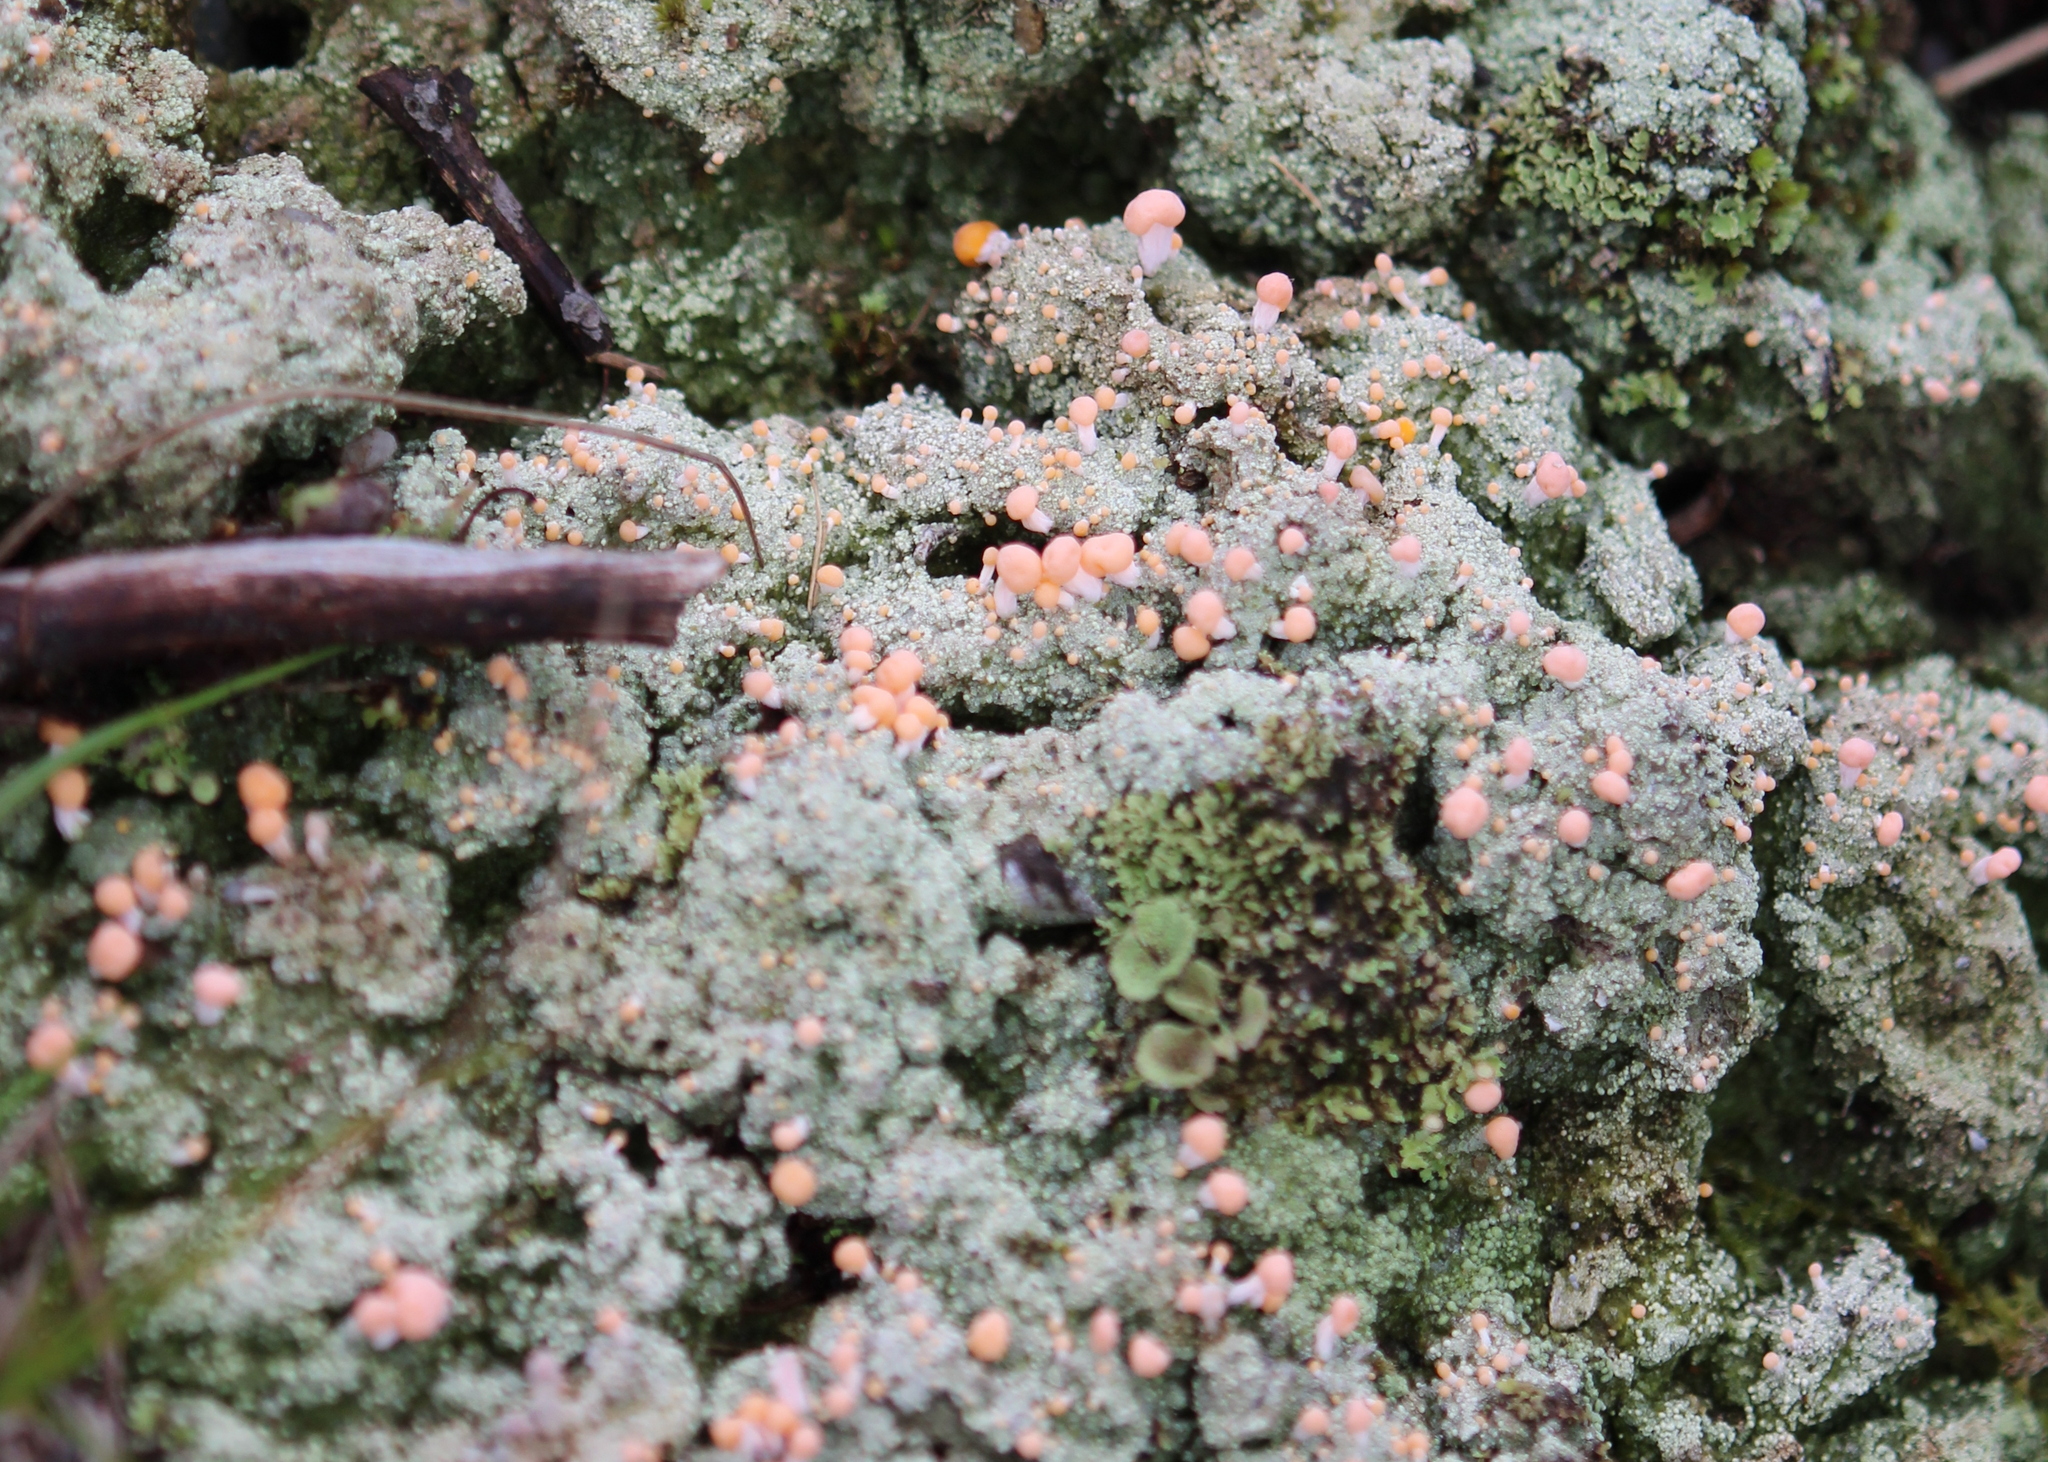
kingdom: Fungi
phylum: Ascomycota
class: Lecanoromycetes
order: Pertusariales
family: Icmadophilaceae
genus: Dibaeis
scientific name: Dibaeis baeomyces
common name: Pink earth lichen
